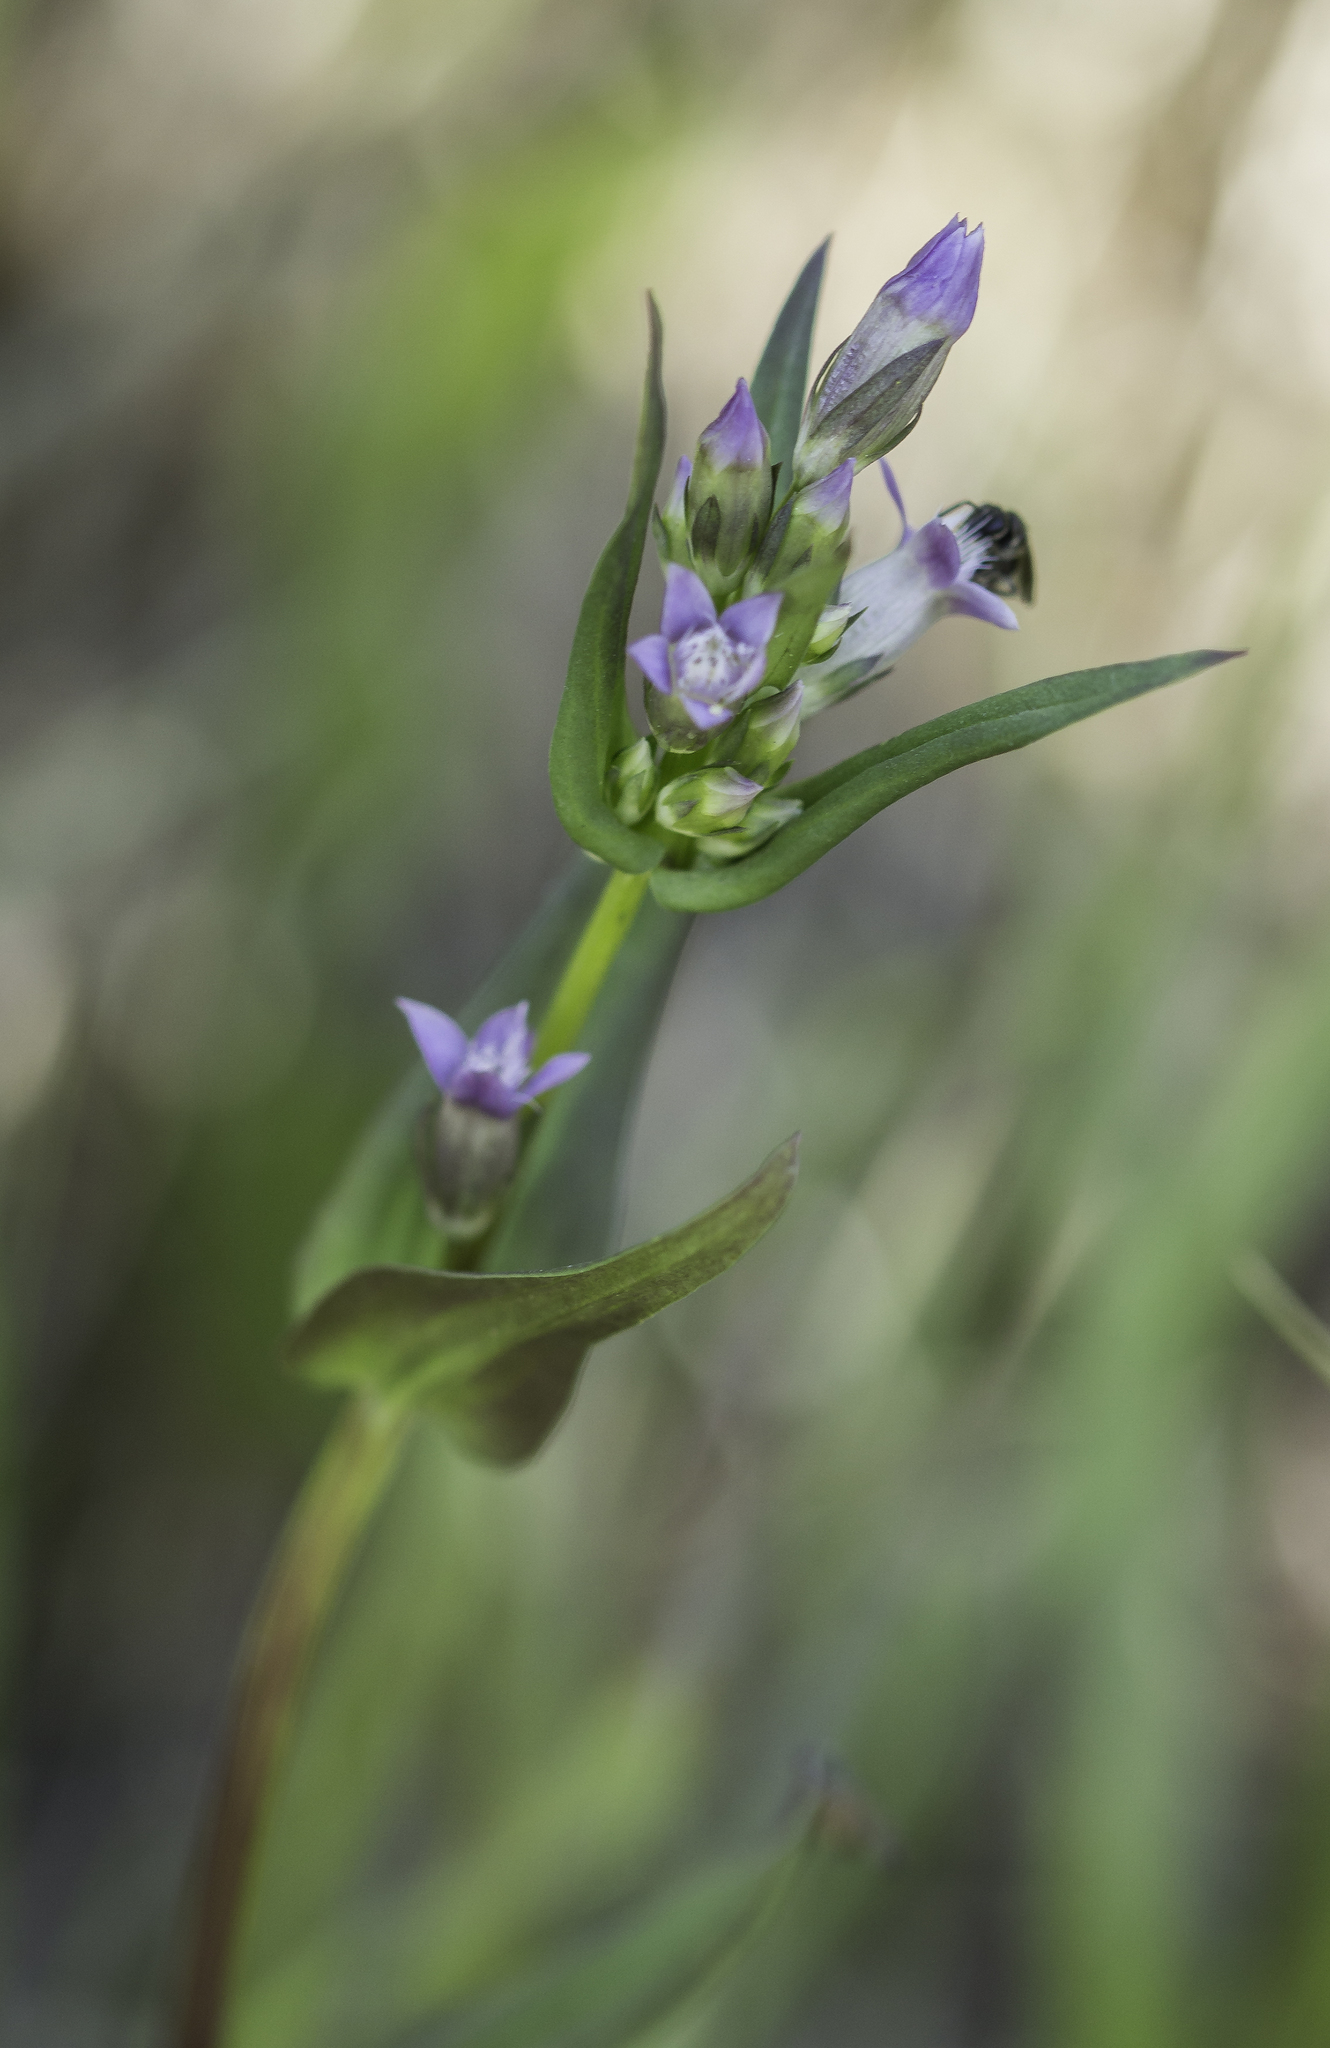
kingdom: Plantae
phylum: Tracheophyta
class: Magnoliopsida
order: Gentianales
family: Gentianaceae
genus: Gentianella
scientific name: Gentianella amarella
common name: Autumn gentian
